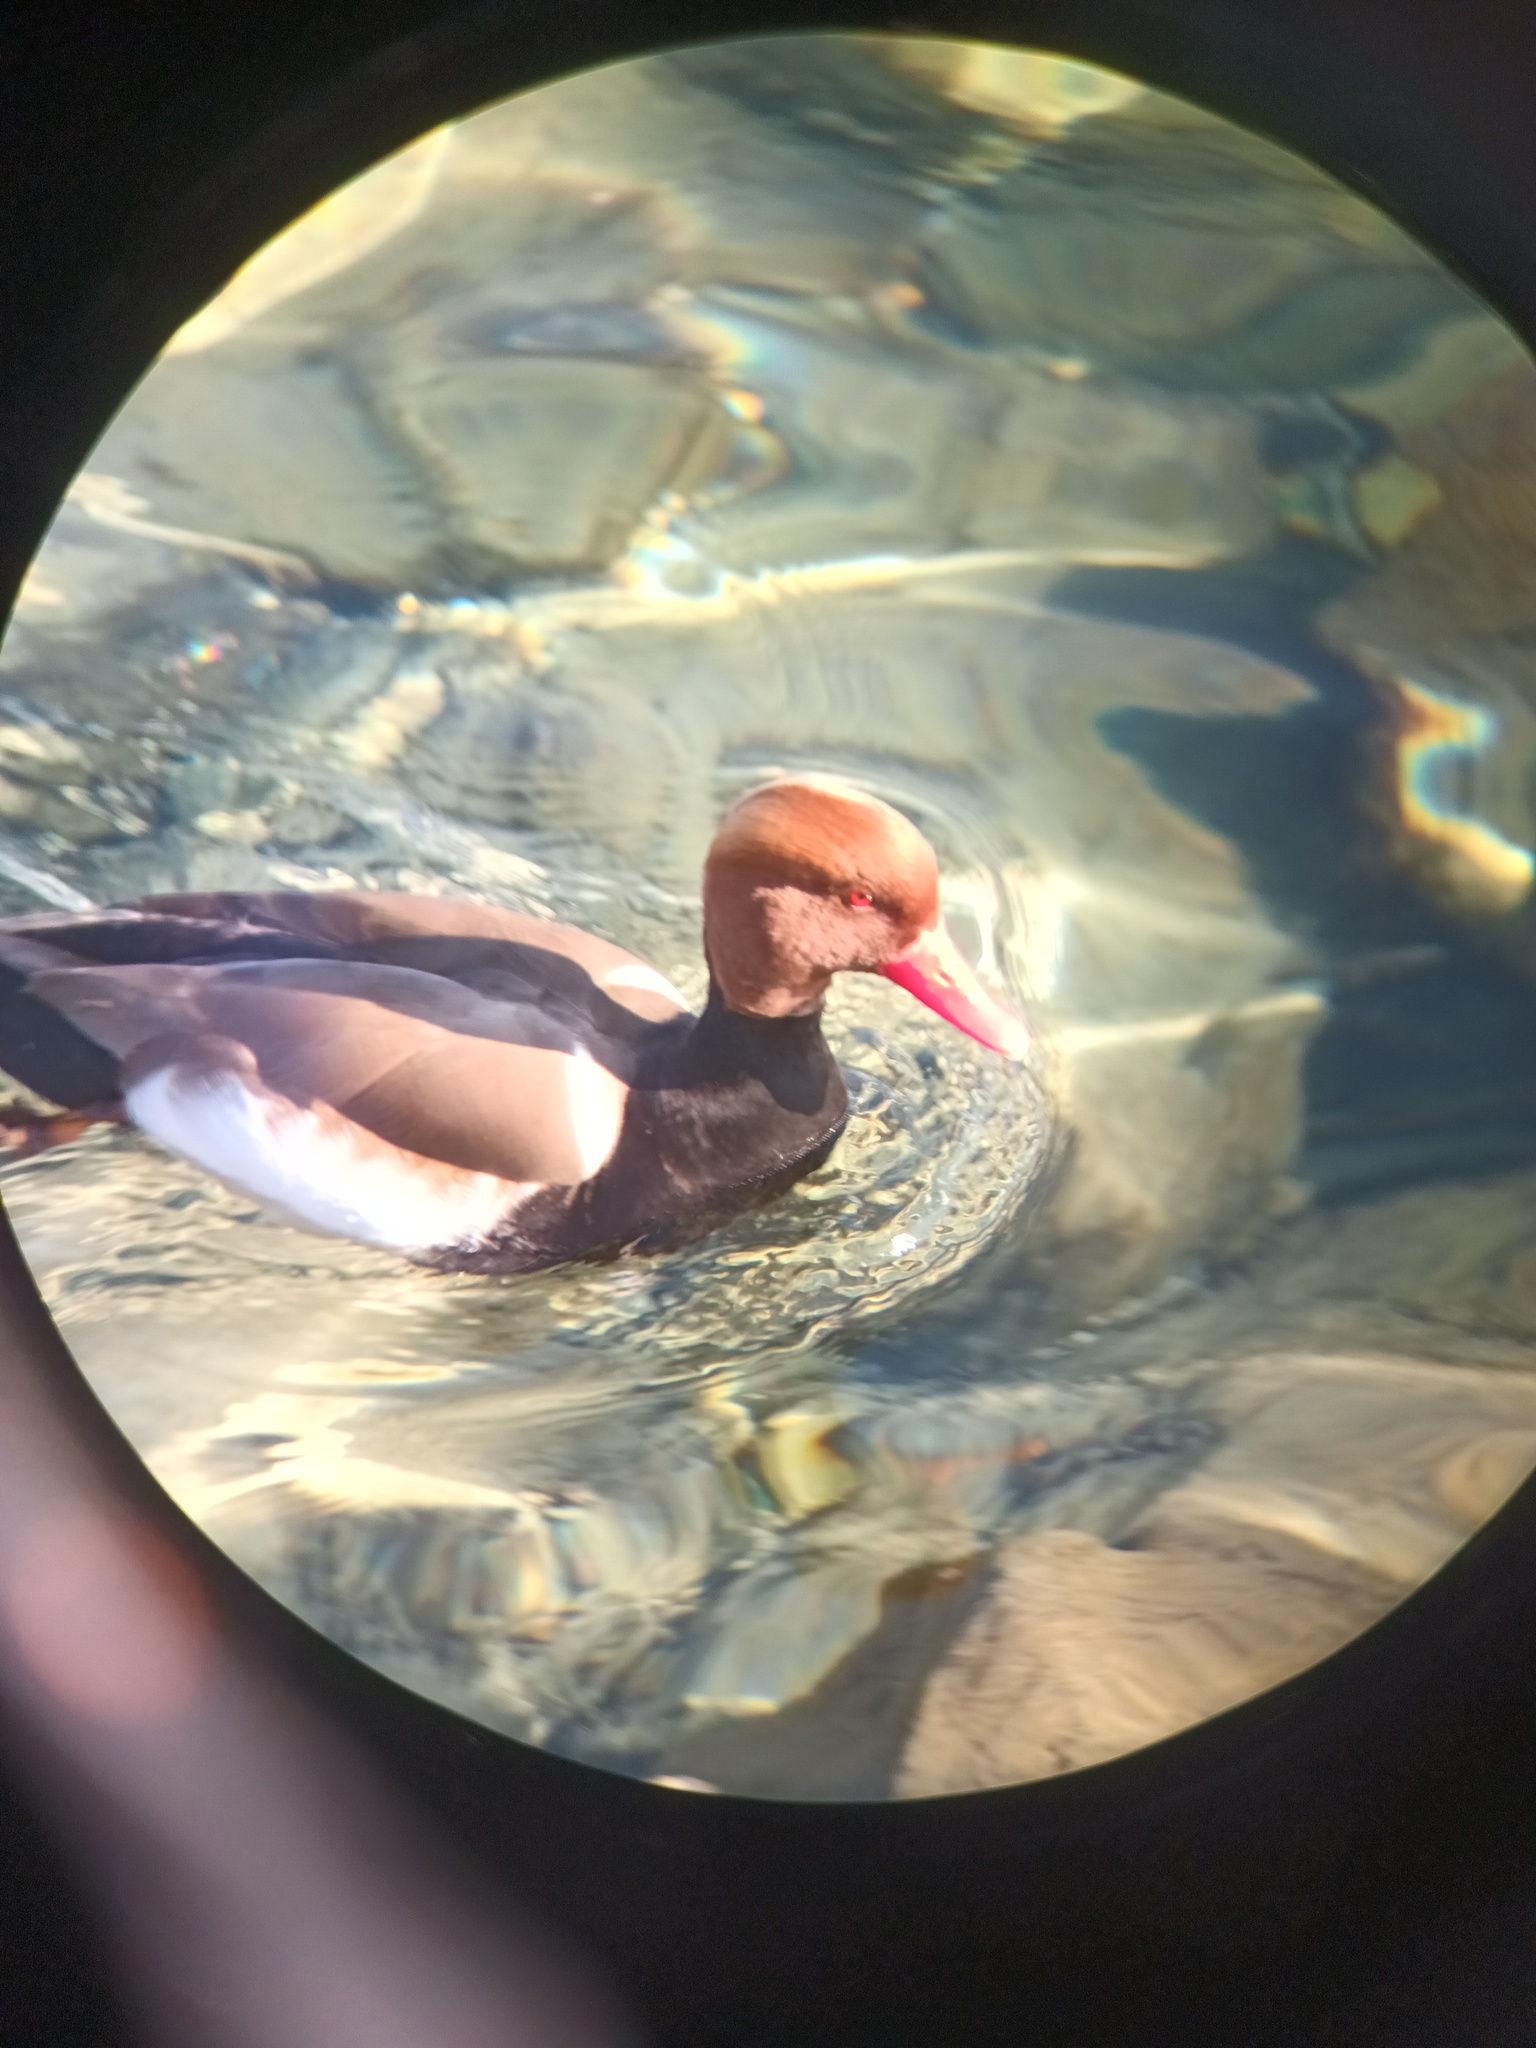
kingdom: Animalia
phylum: Chordata
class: Aves
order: Anseriformes
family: Anatidae
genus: Netta
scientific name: Netta rufina
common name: Red-crested pochard
